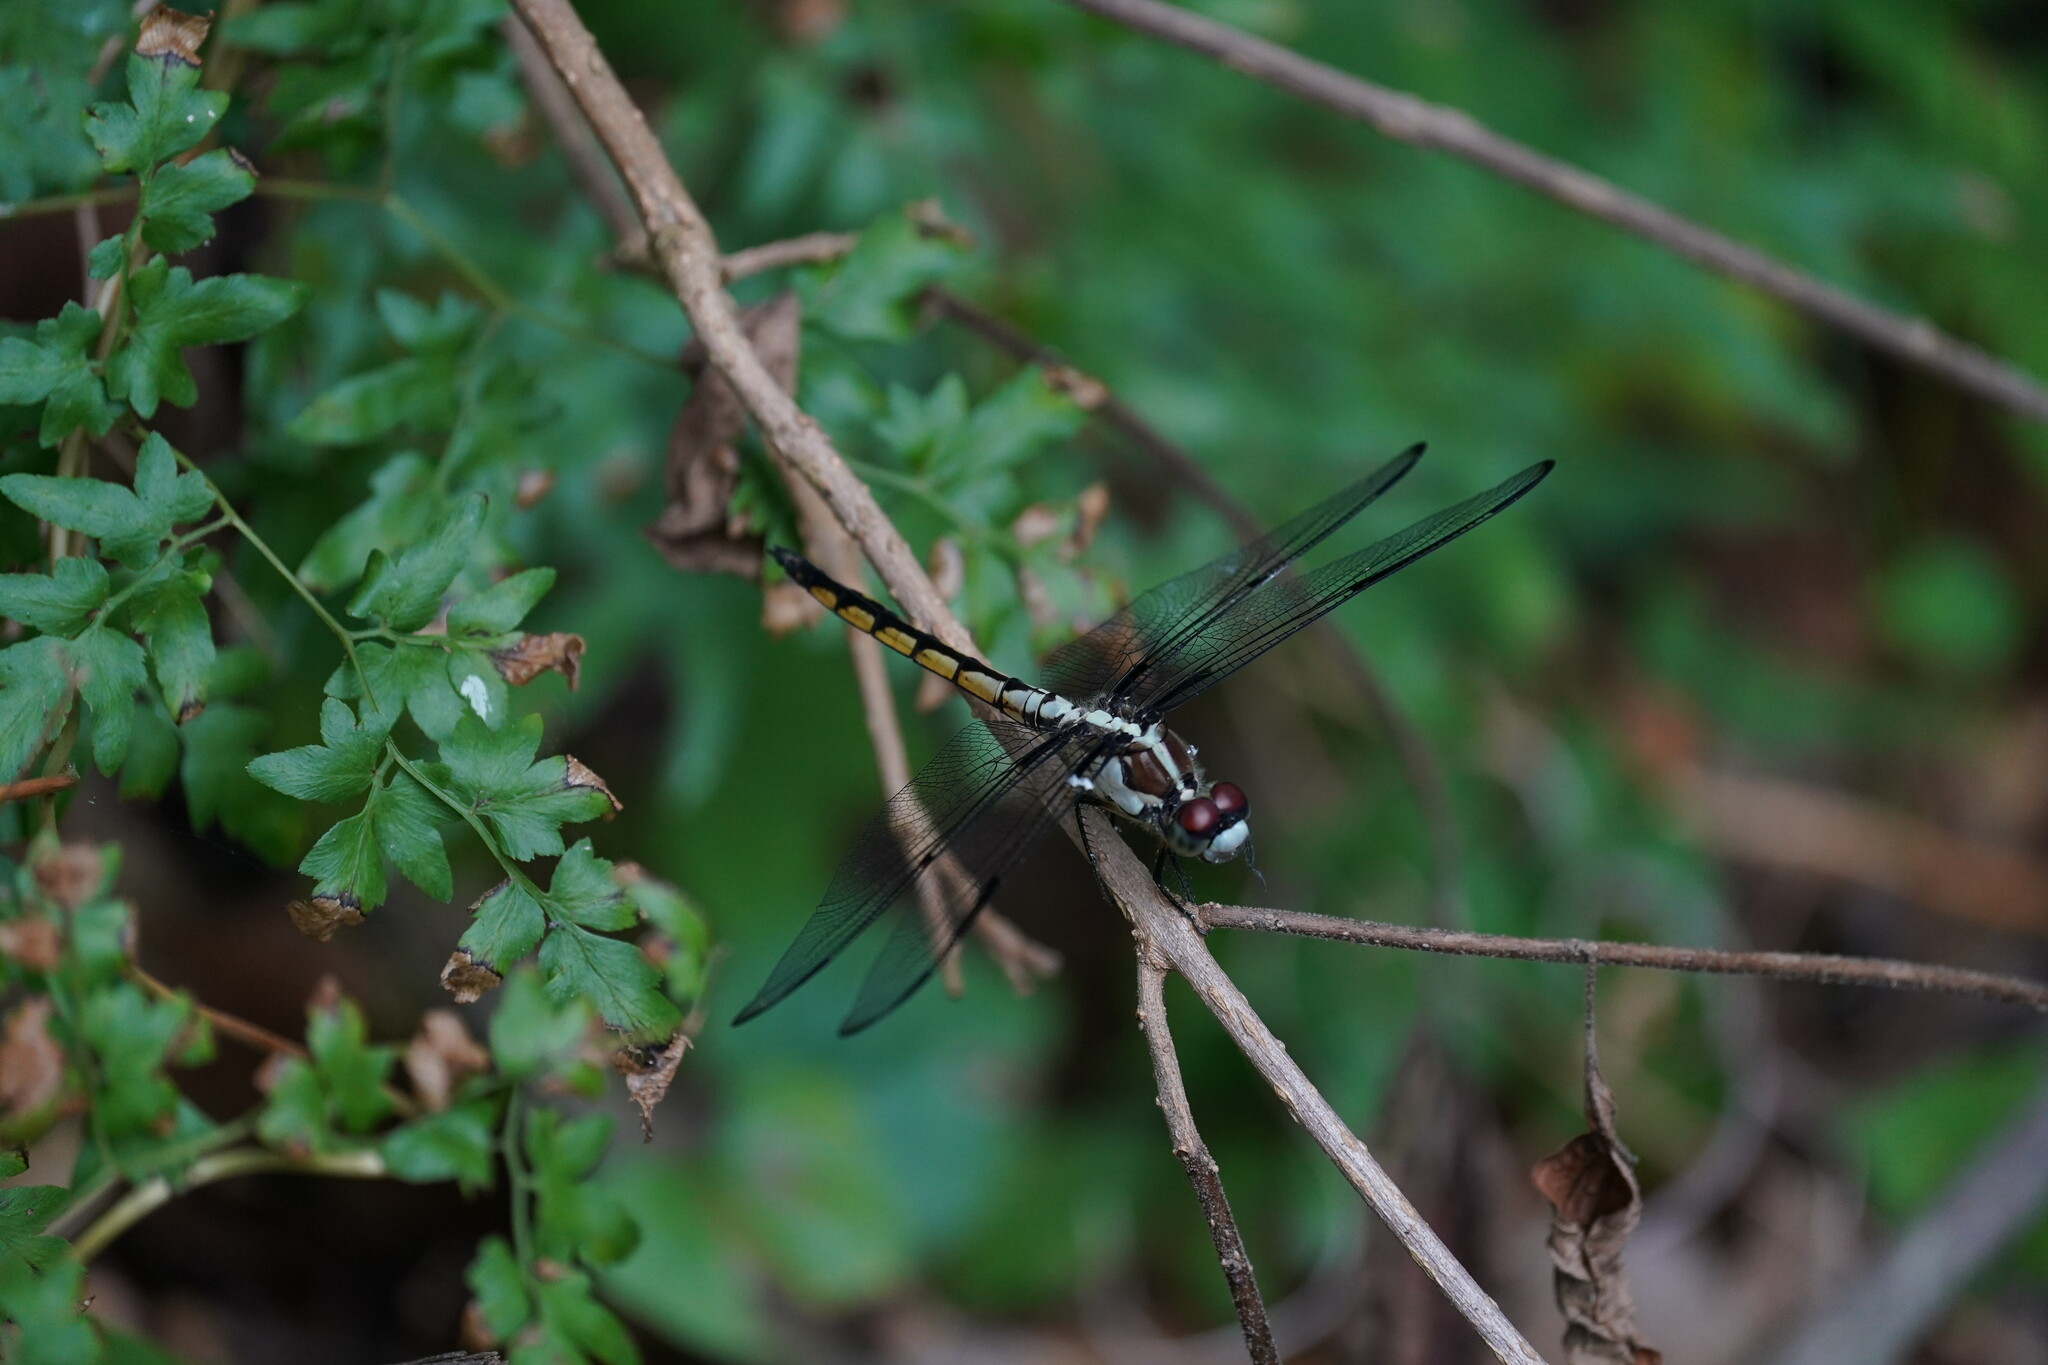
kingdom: Animalia
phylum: Arthropoda
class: Insecta
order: Odonata
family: Libellulidae
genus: Libellula
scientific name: Libellula vibrans
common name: Great blue skimmer
